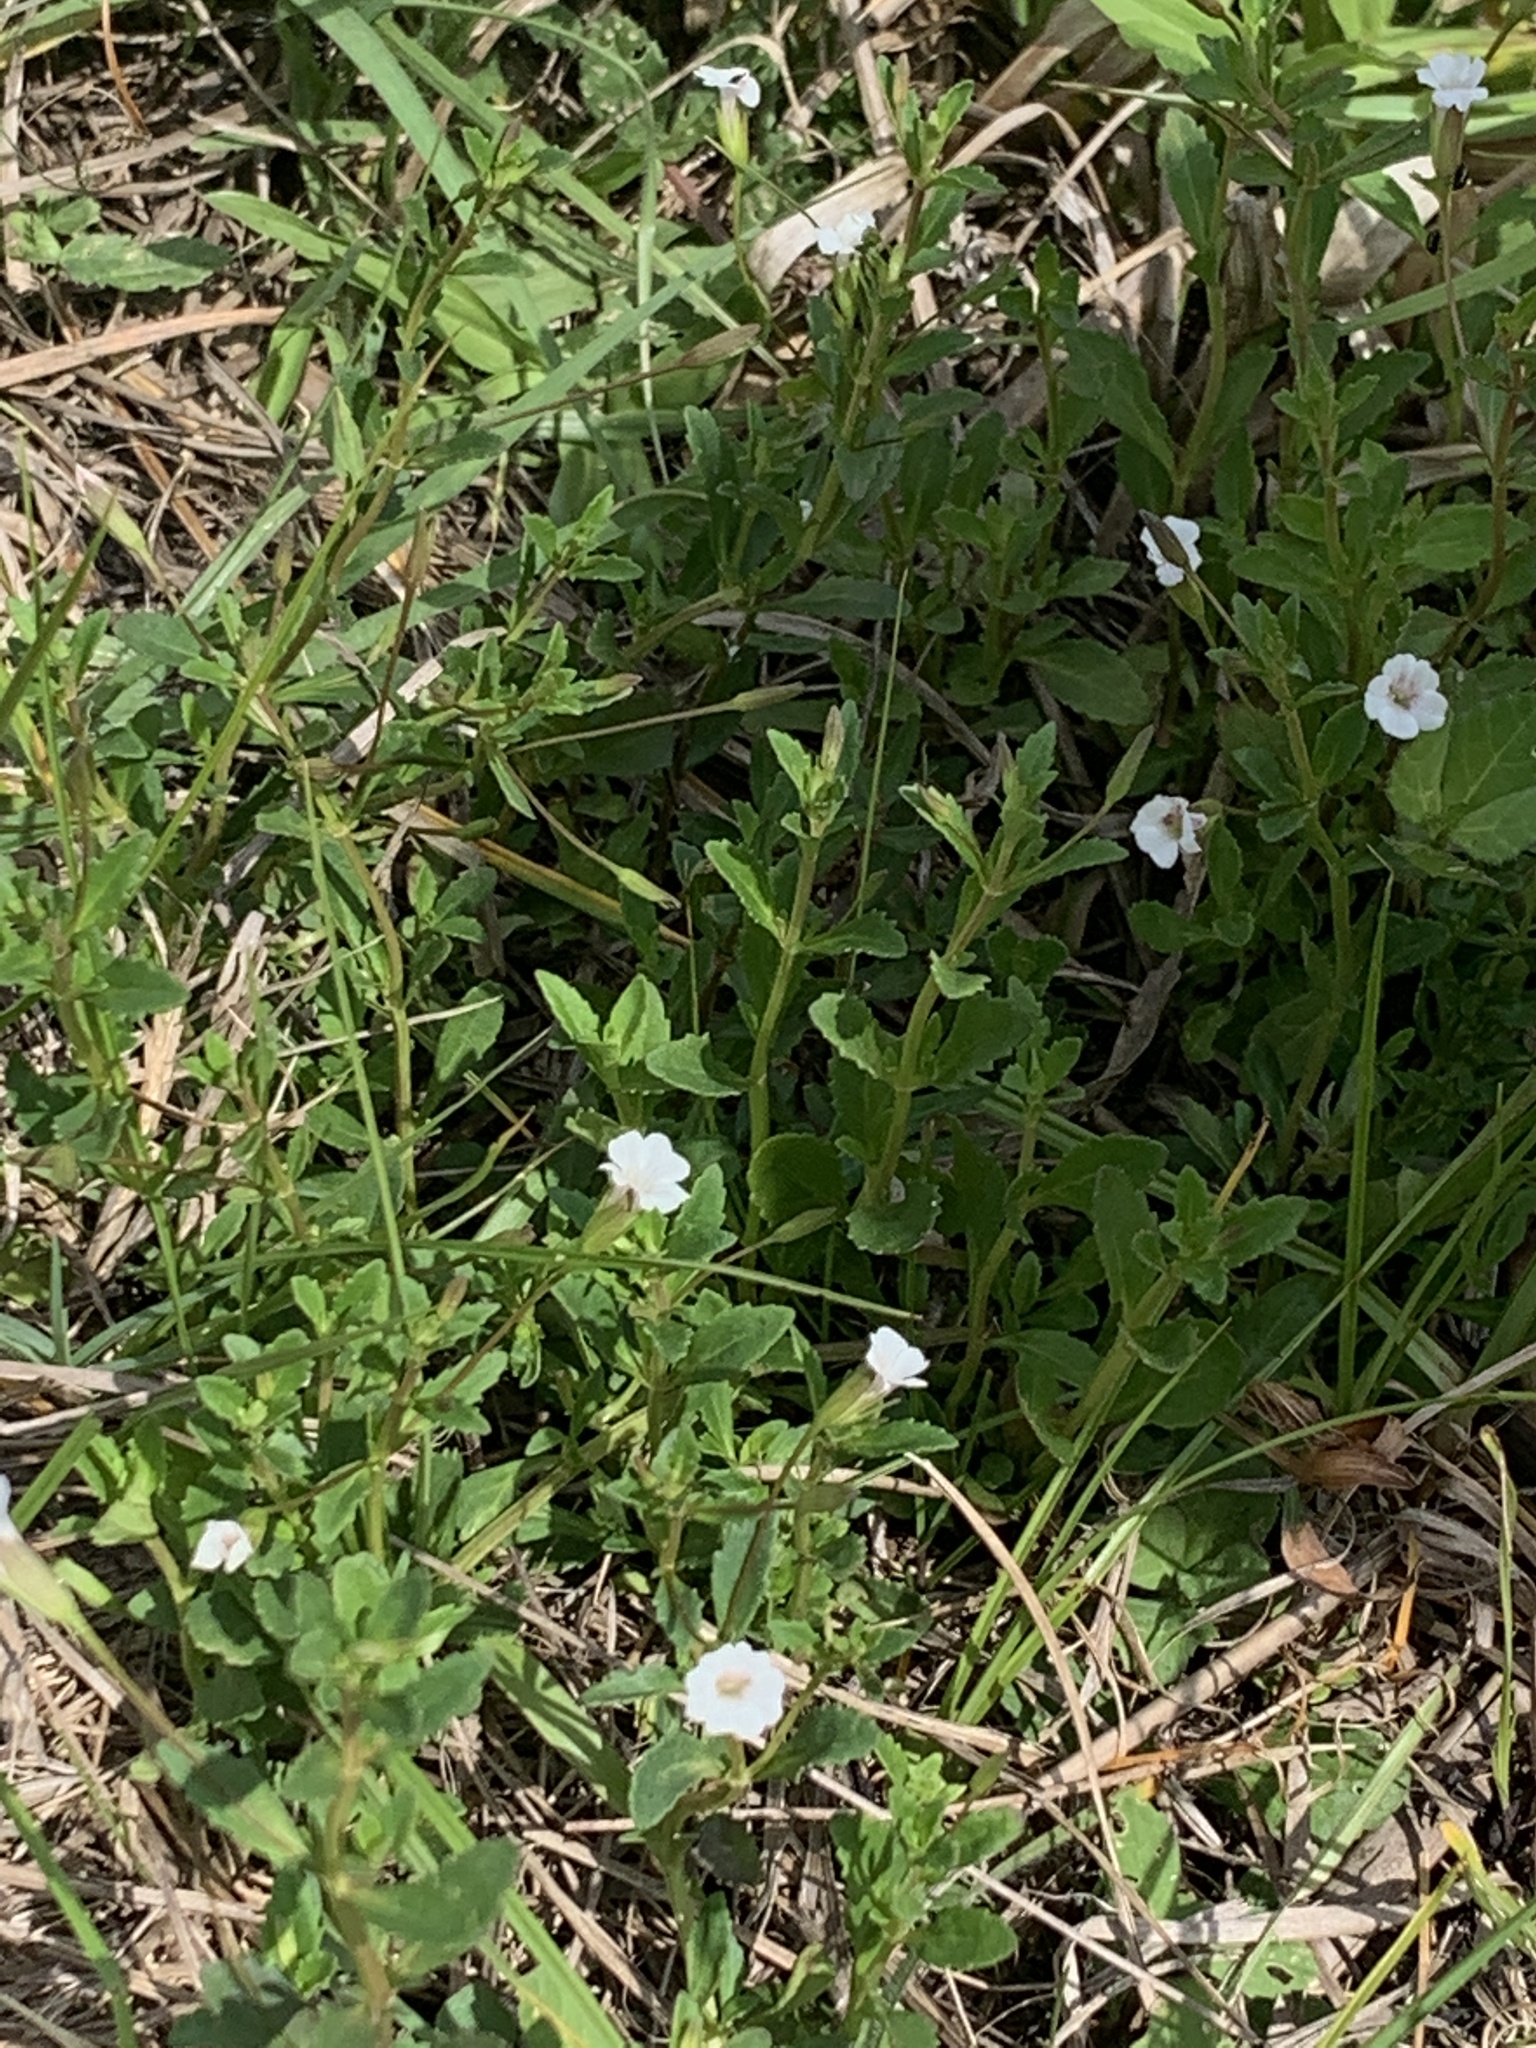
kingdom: Plantae
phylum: Tracheophyta
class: Magnoliopsida
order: Lamiales
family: Plantaginaceae
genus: Mecardonia
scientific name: Mecardonia acuminata
